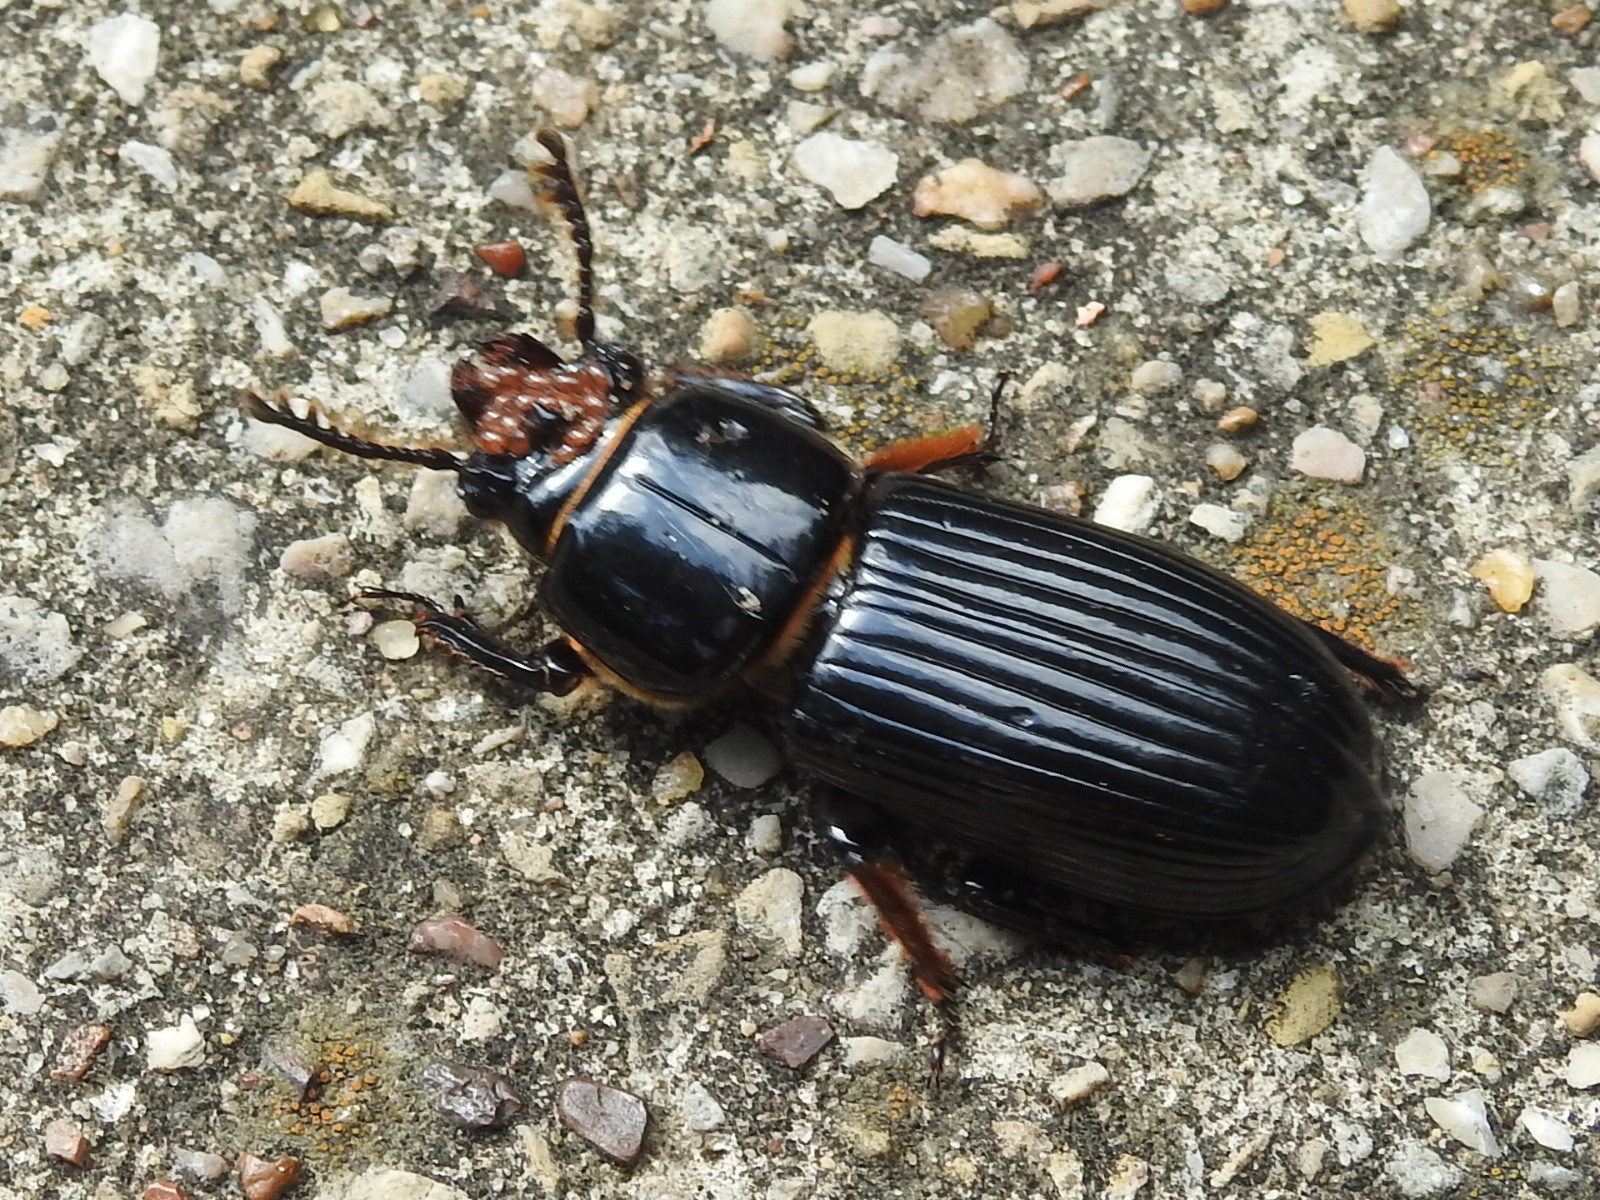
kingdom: Animalia
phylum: Arthropoda
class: Insecta
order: Coleoptera
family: Passalidae
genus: Odontotaenius
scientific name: Odontotaenius disjunctus
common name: Patent leather beetle
